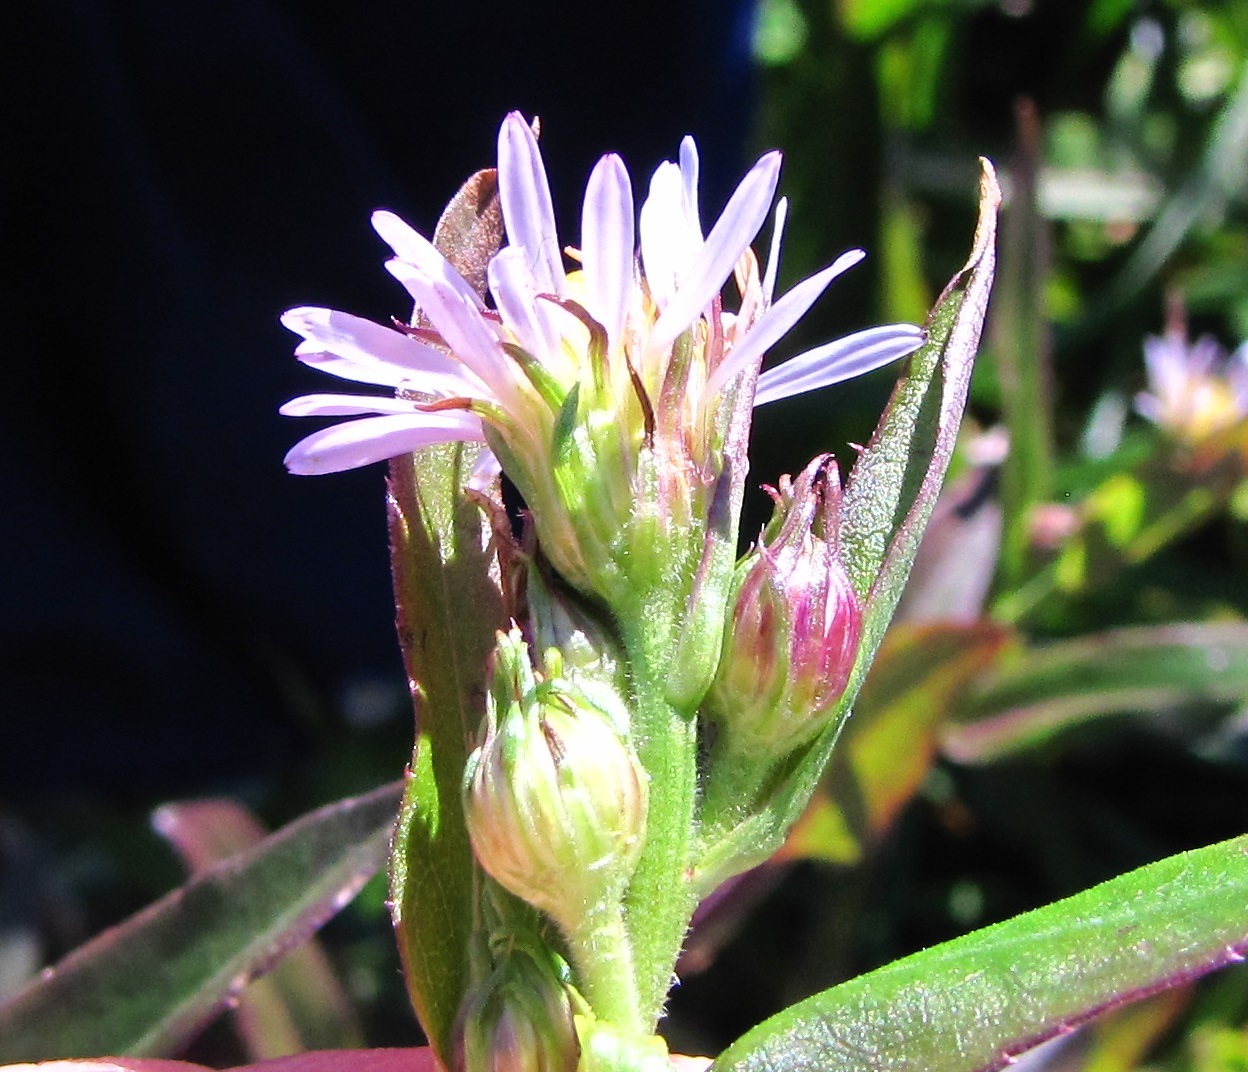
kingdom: Plantae
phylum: Tracheophyta
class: Magnoliopsida
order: Asterales
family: Asteraceae
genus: Symphyotrichum
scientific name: Symphyotrichum puniceum
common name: Bog aster
